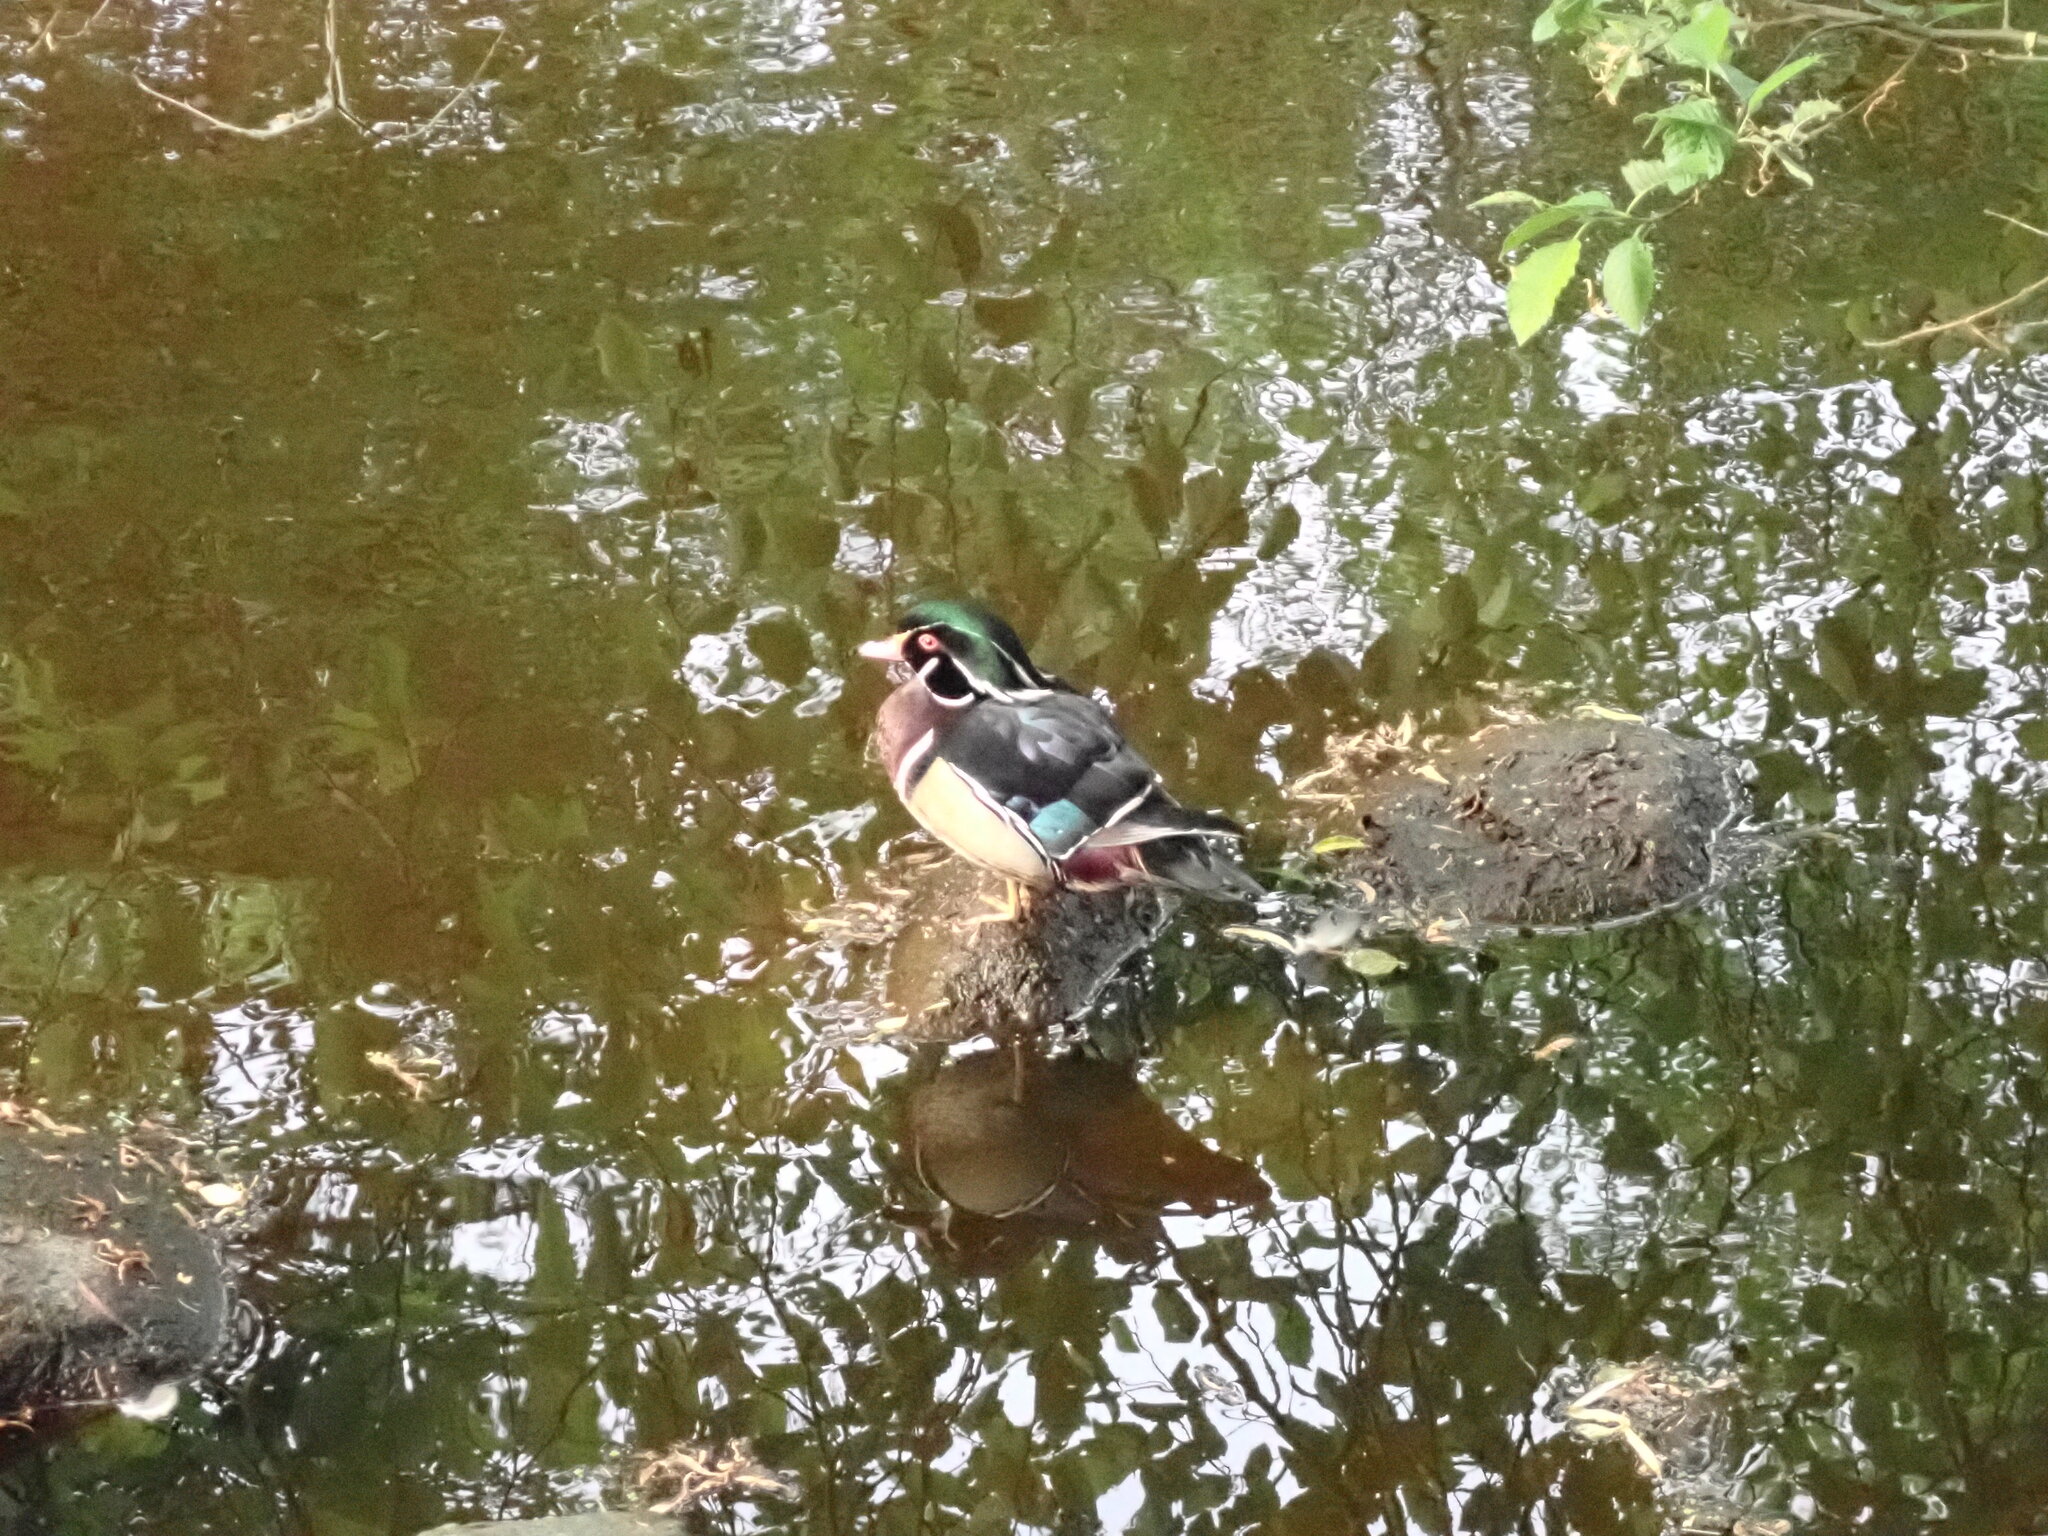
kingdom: Animalia
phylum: Chordata
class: Aves
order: Anseriformes
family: Anatidae
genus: Aix
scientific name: Aix sponsa
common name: Wood duck
